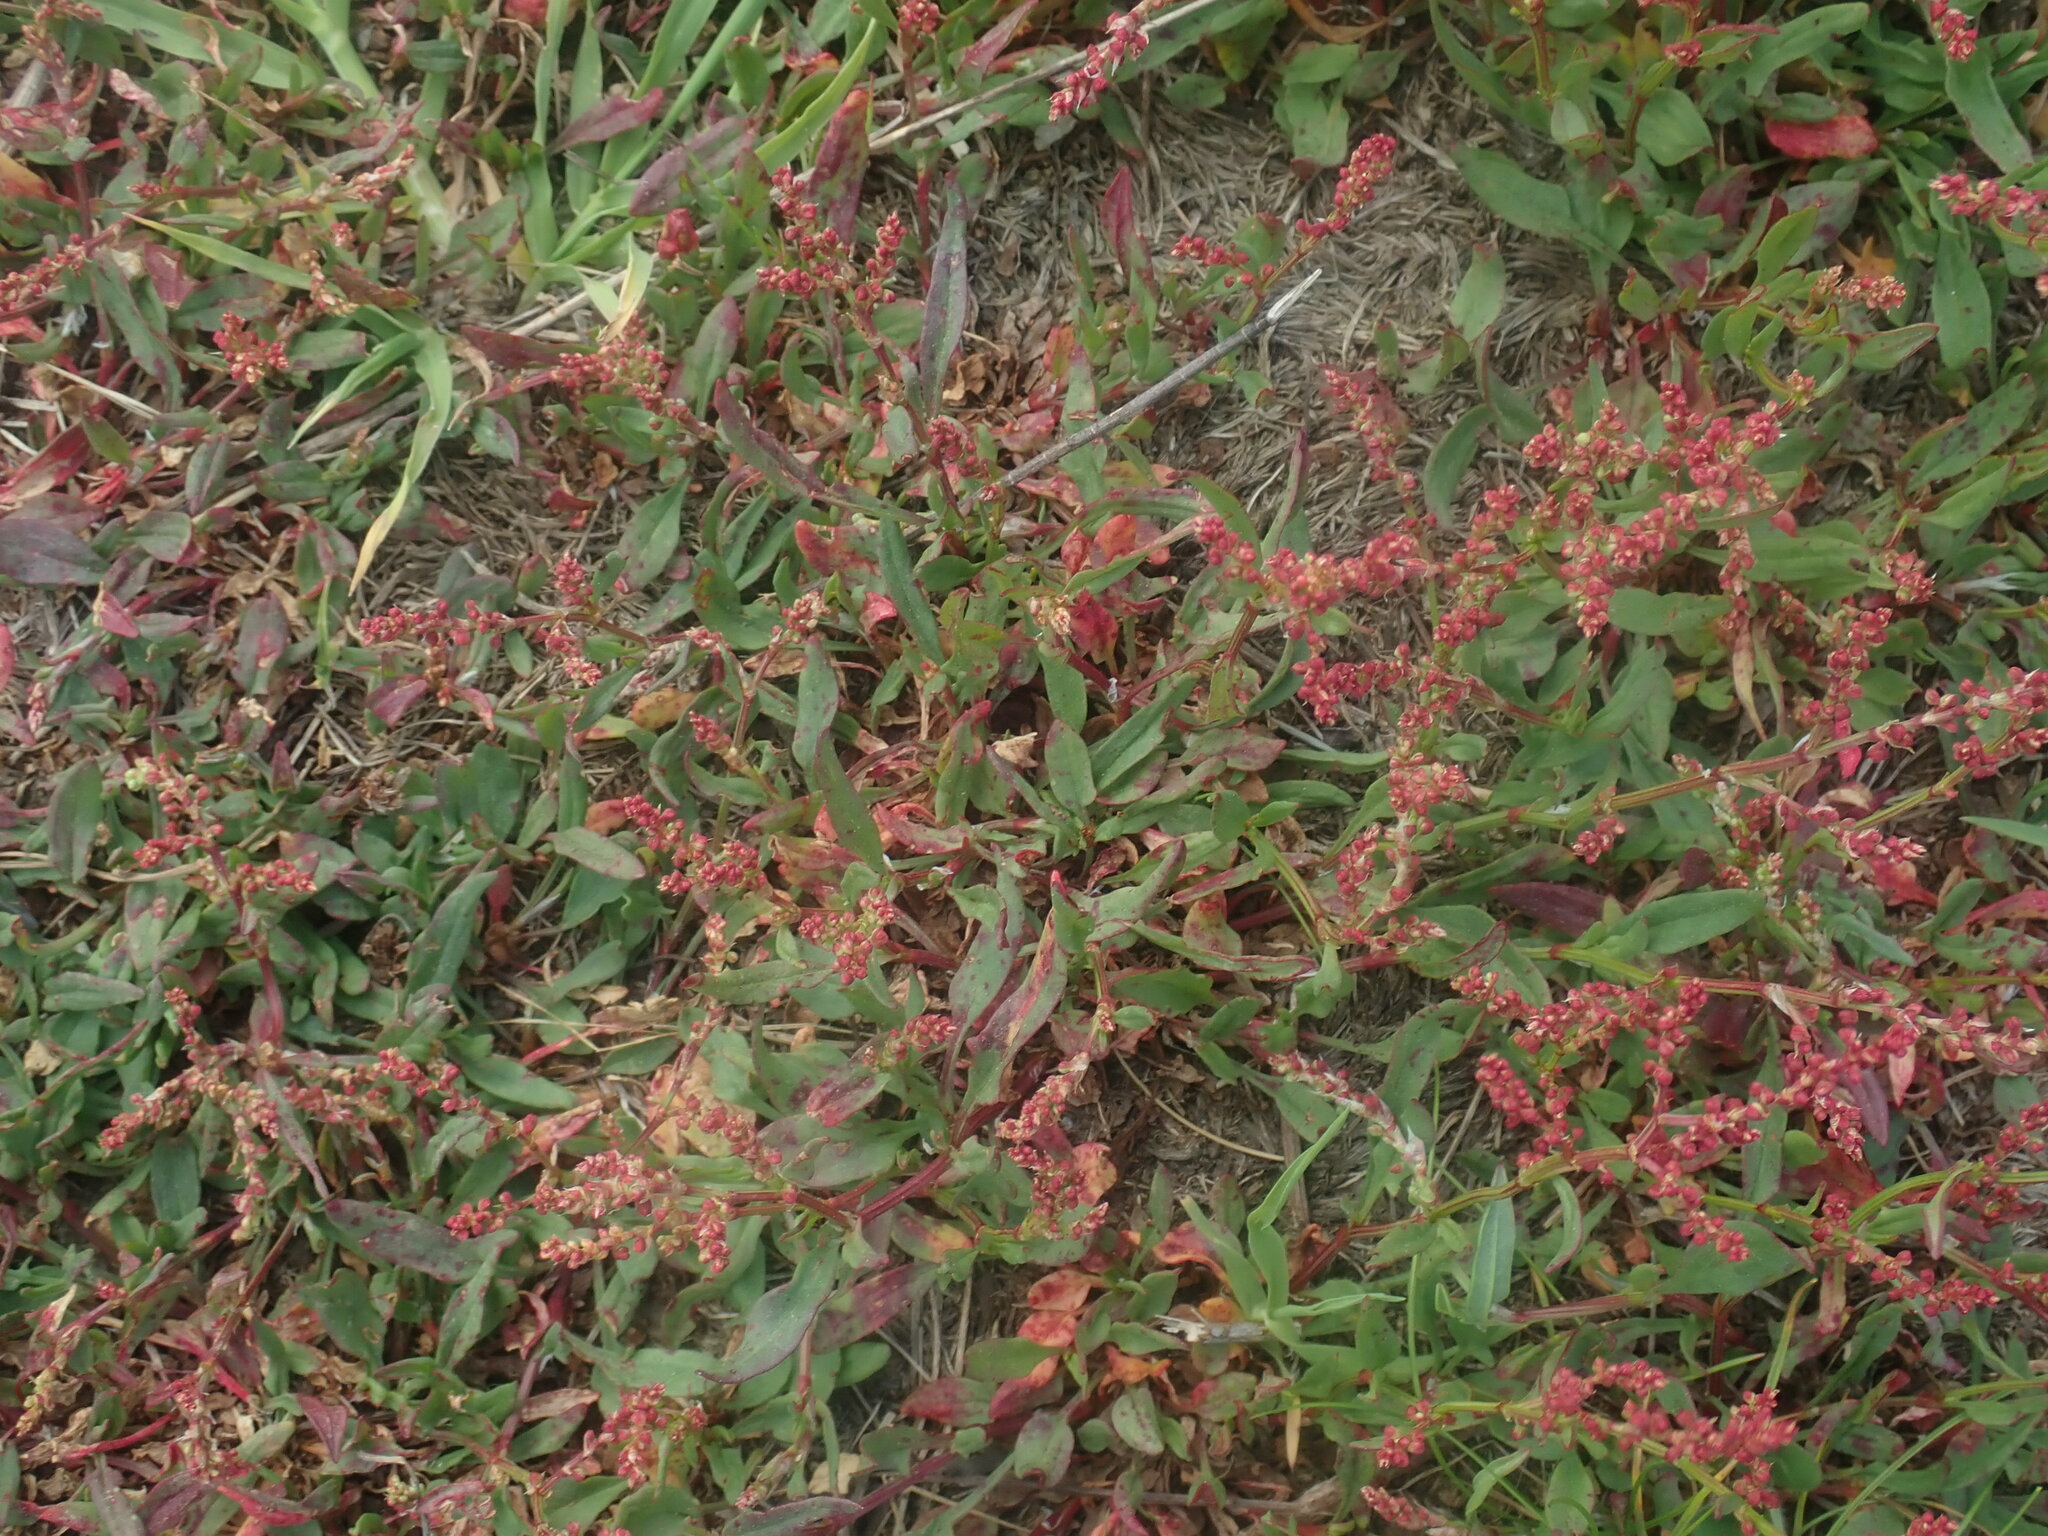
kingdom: Plantae
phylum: Tracheophyta
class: Magnoliopsida
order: Caryophyllales
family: Polygonaceae
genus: Rumex
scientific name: Rumex acetosella
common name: Common sheep sorrel
